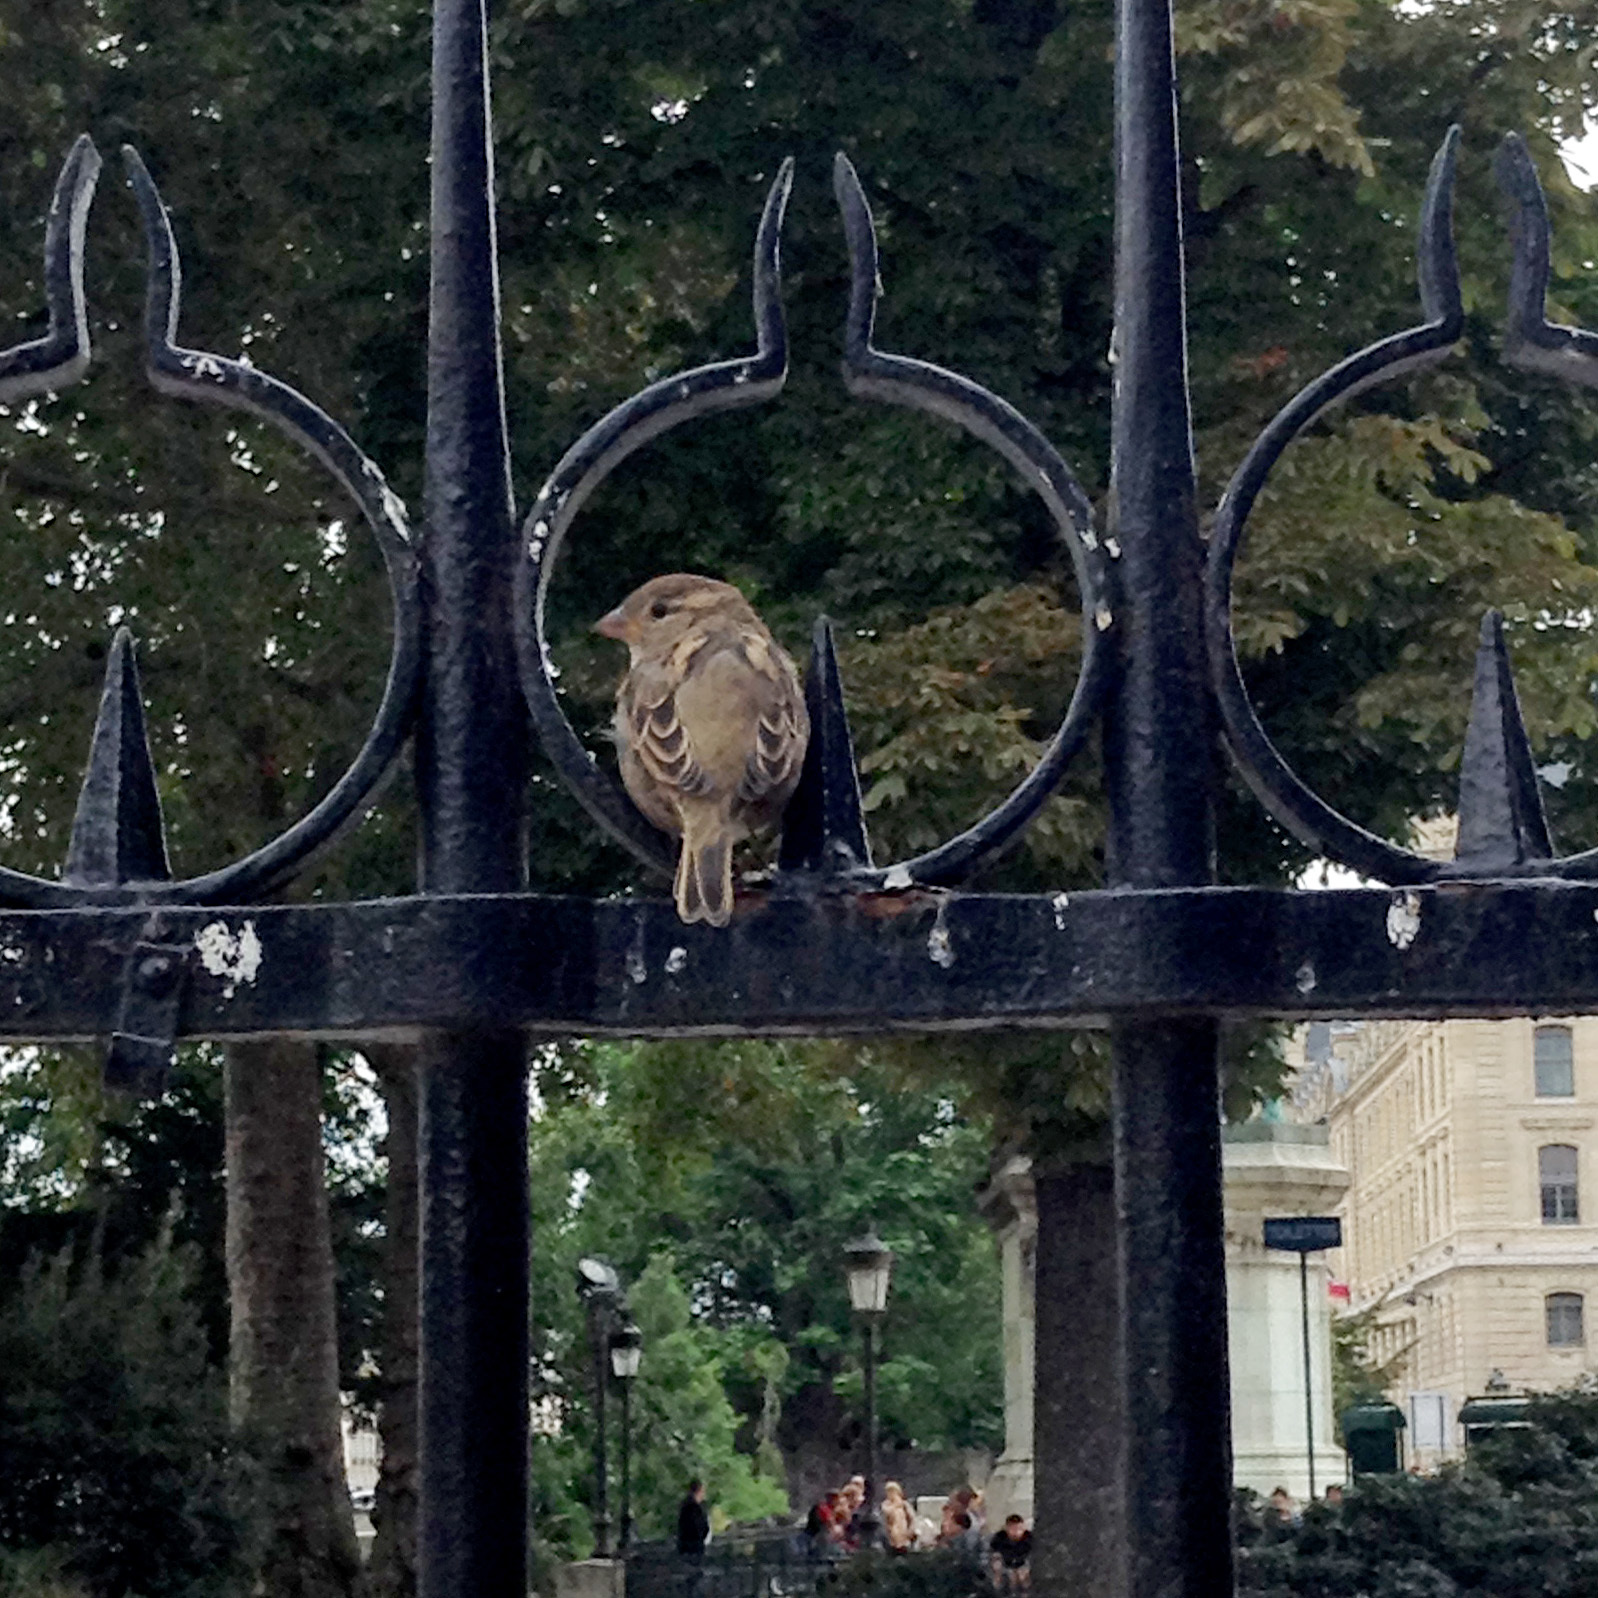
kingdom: Animalia
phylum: Chordata
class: Aves
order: Passeriformes
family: Passeridae
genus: Passer
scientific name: Passer domesticus
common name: House sparrow
